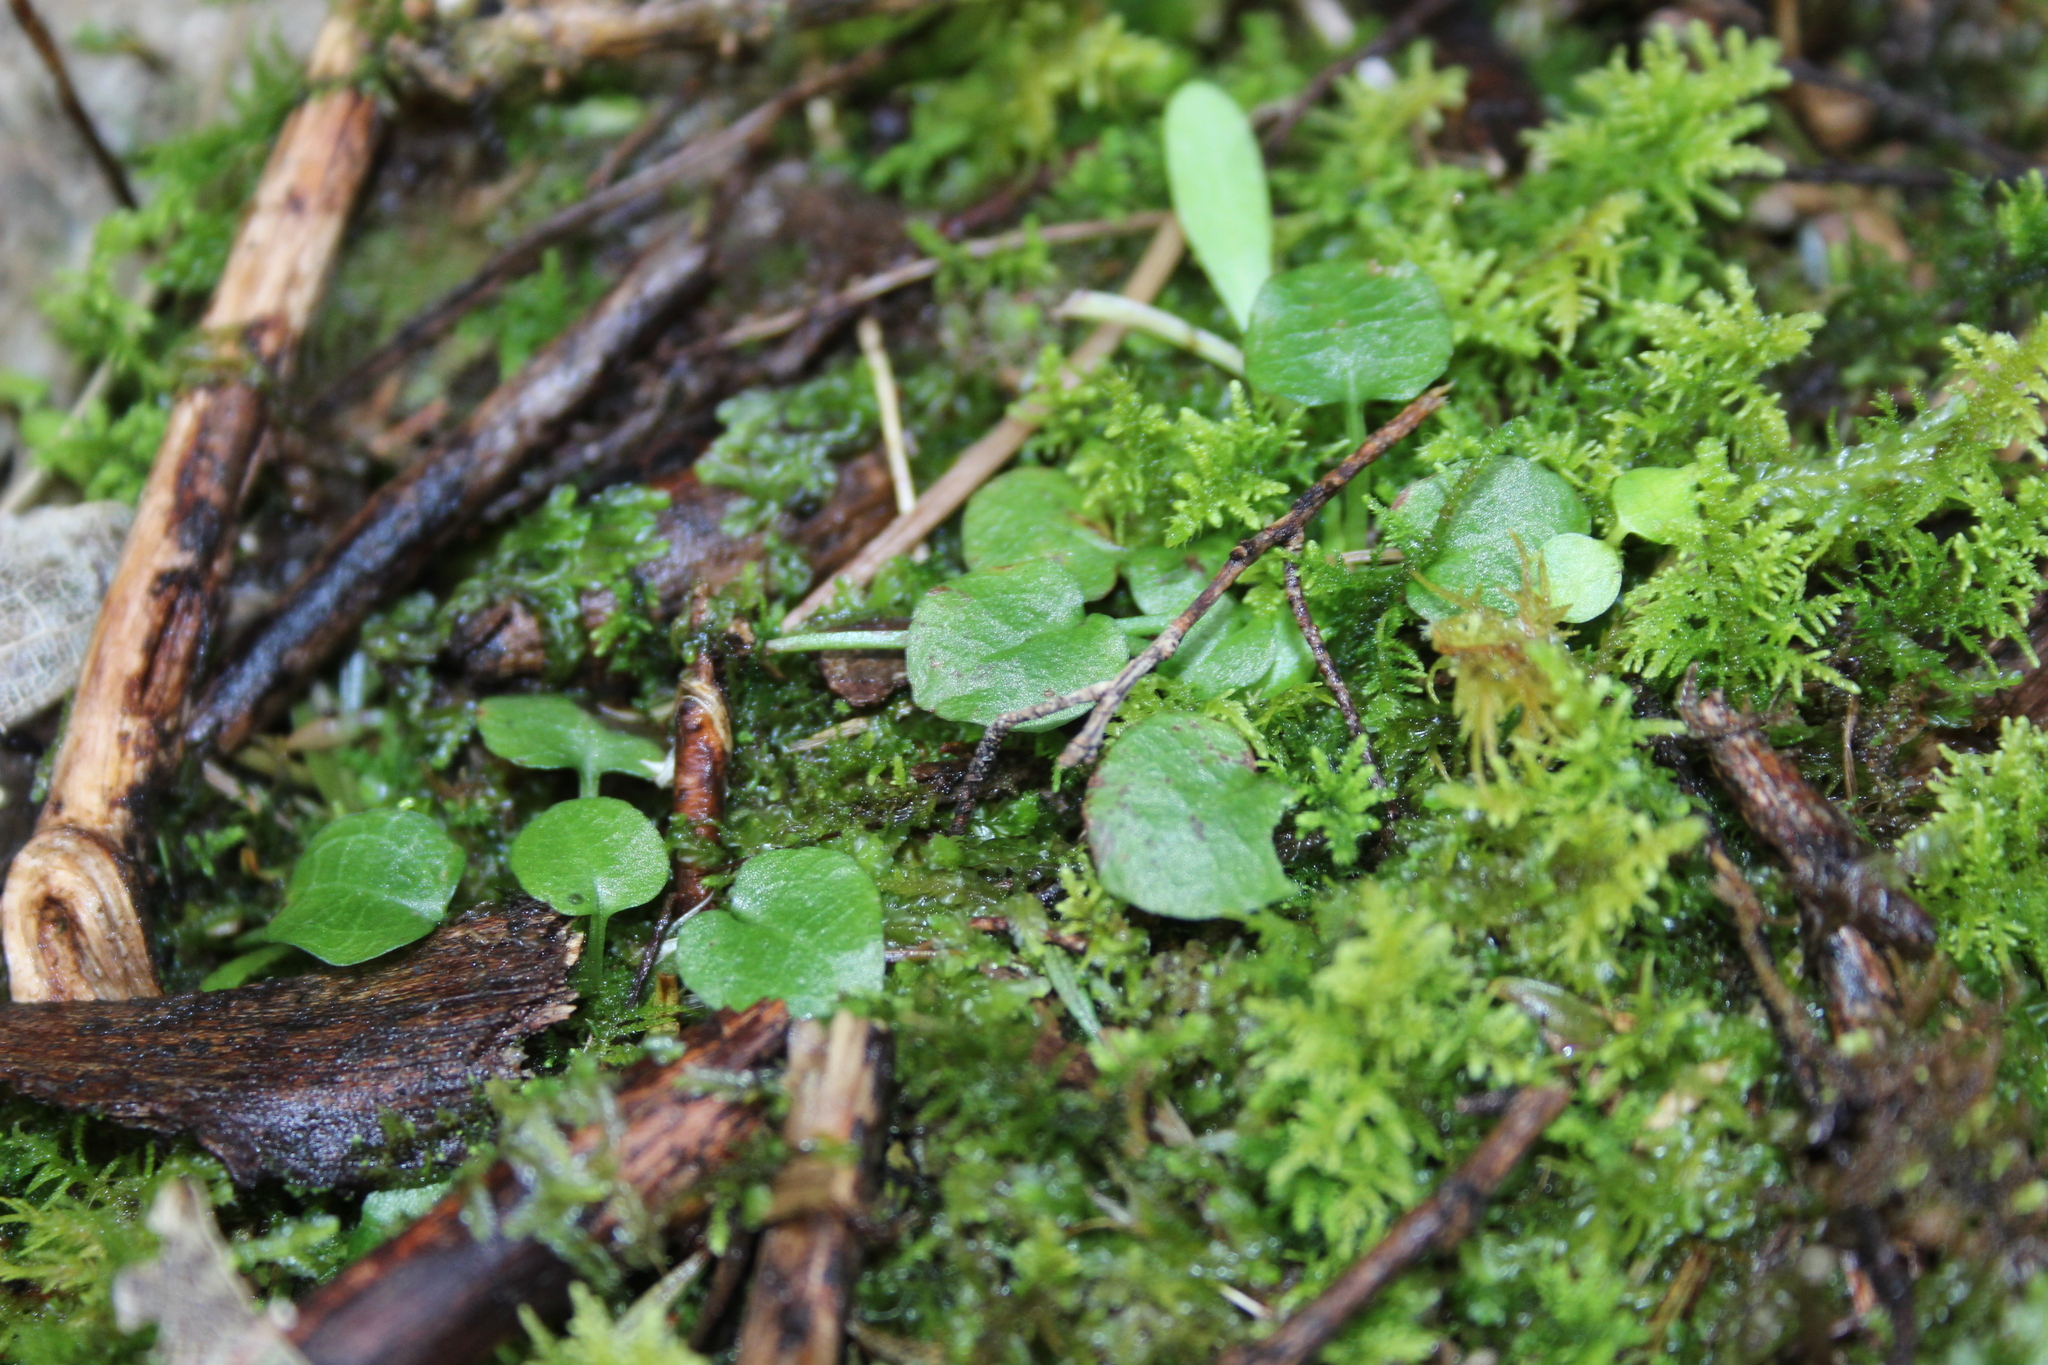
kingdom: Plantae
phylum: Tracheophyta
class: Liliopsida
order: Asparagales
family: Orchidaceae
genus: Pterostylis
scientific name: Pterostylis alobula
